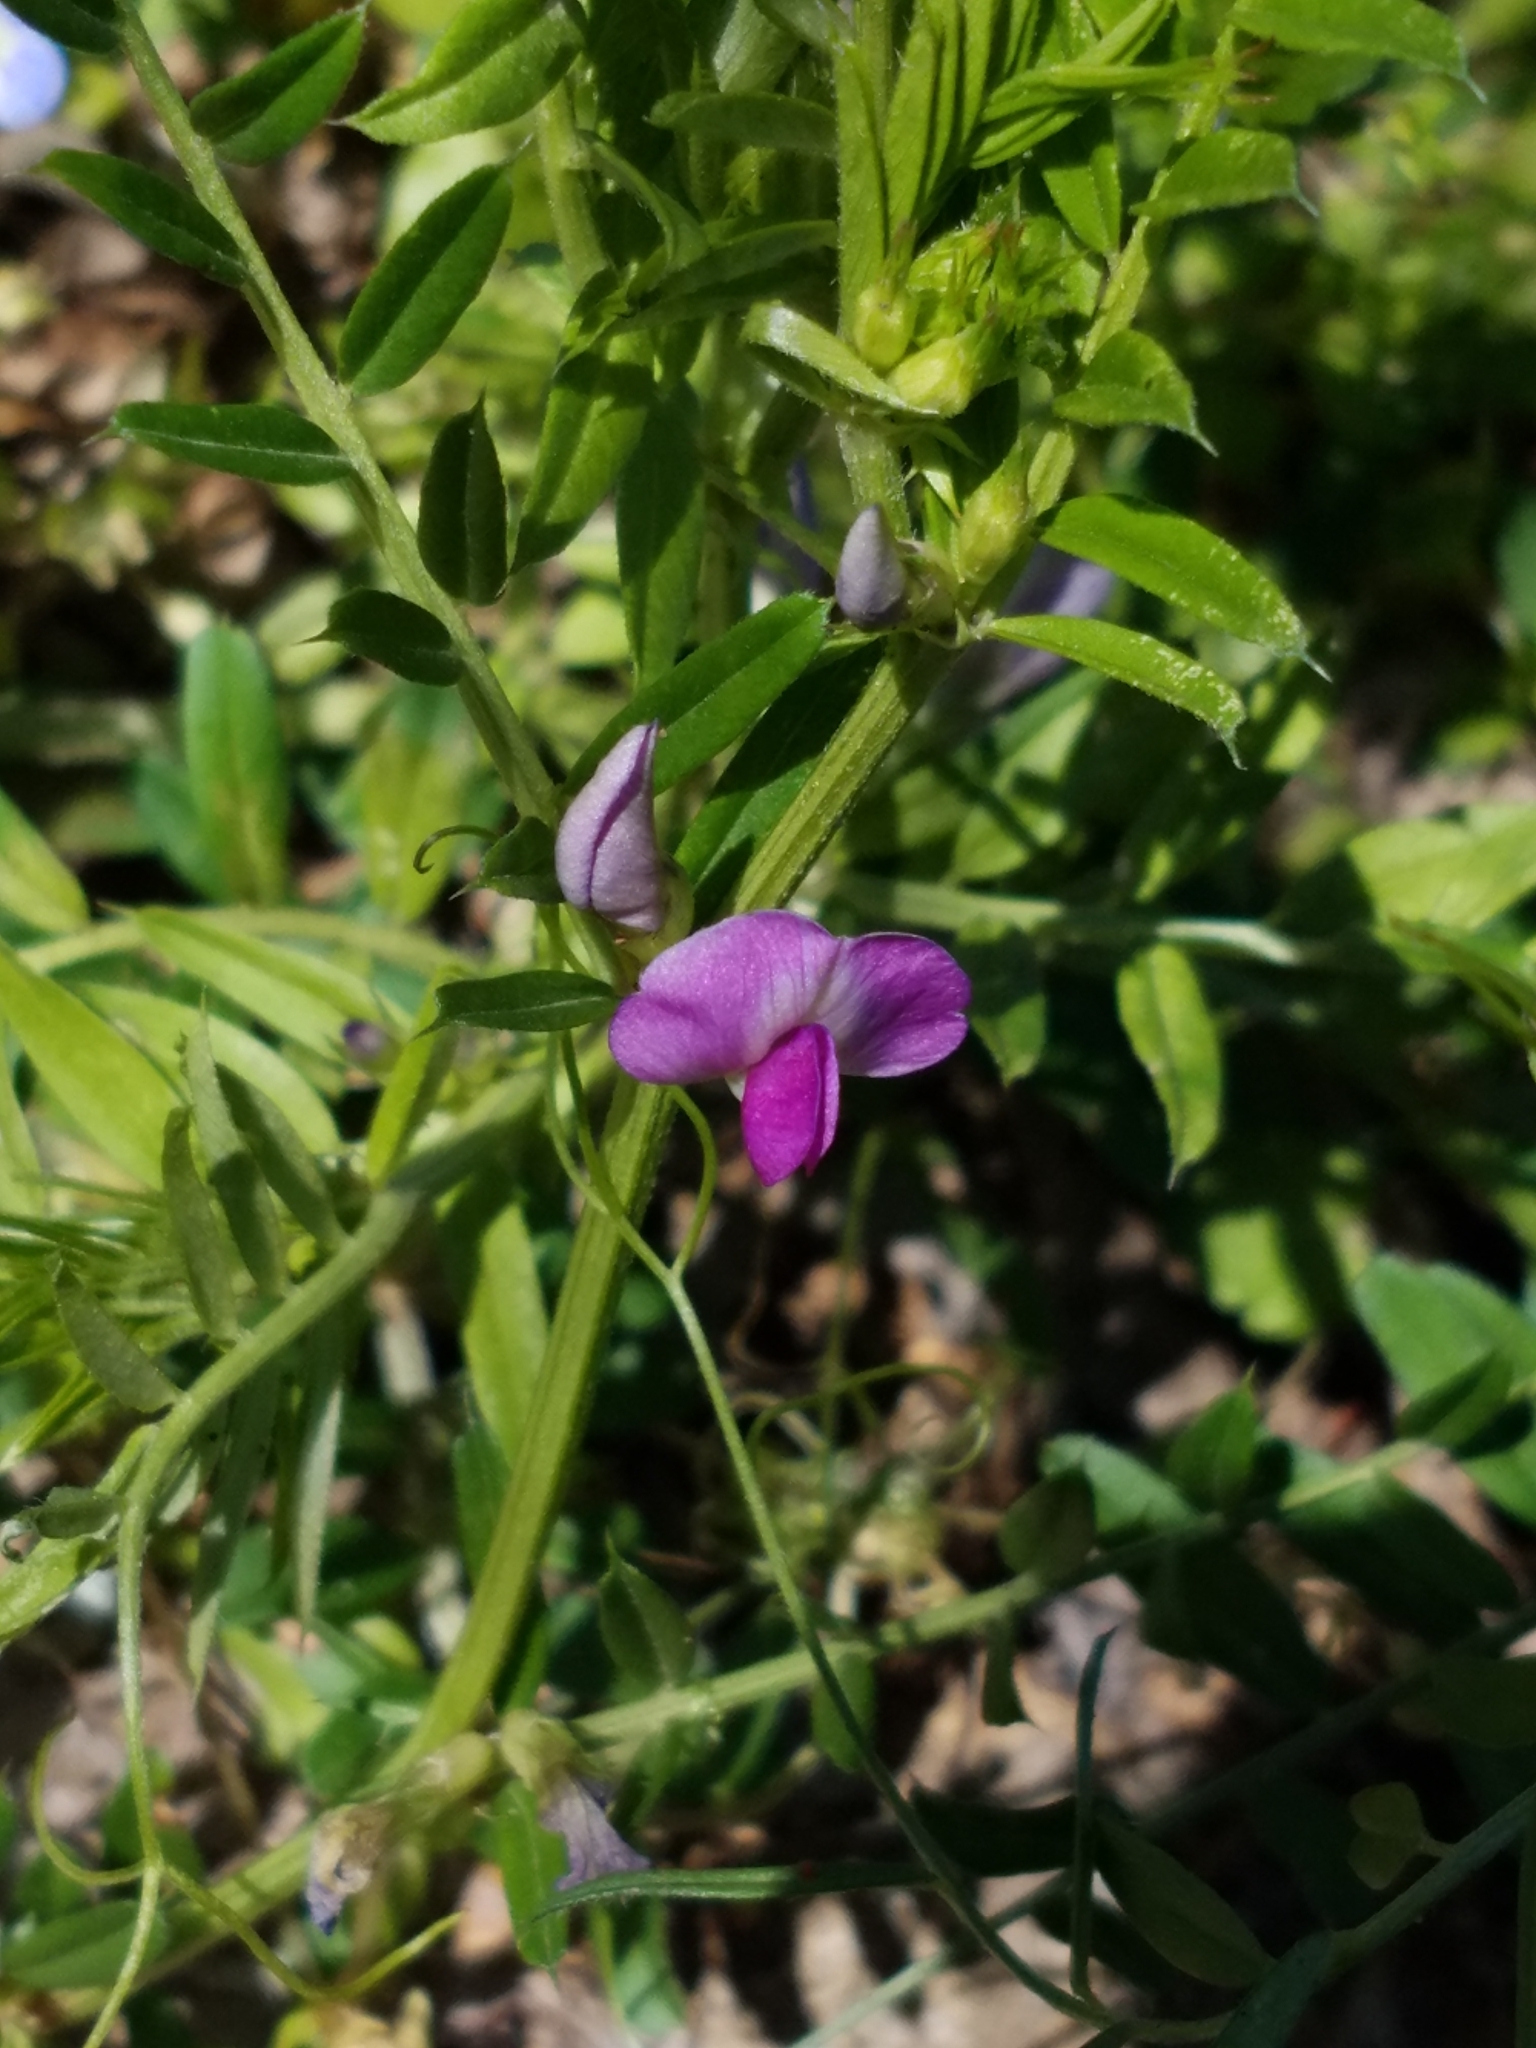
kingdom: Plantae
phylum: Tracheophyta
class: Magnoliopsida
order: Fabales
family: Fabaceae
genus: Vicia
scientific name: Vicia sativa
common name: Garden vetch
